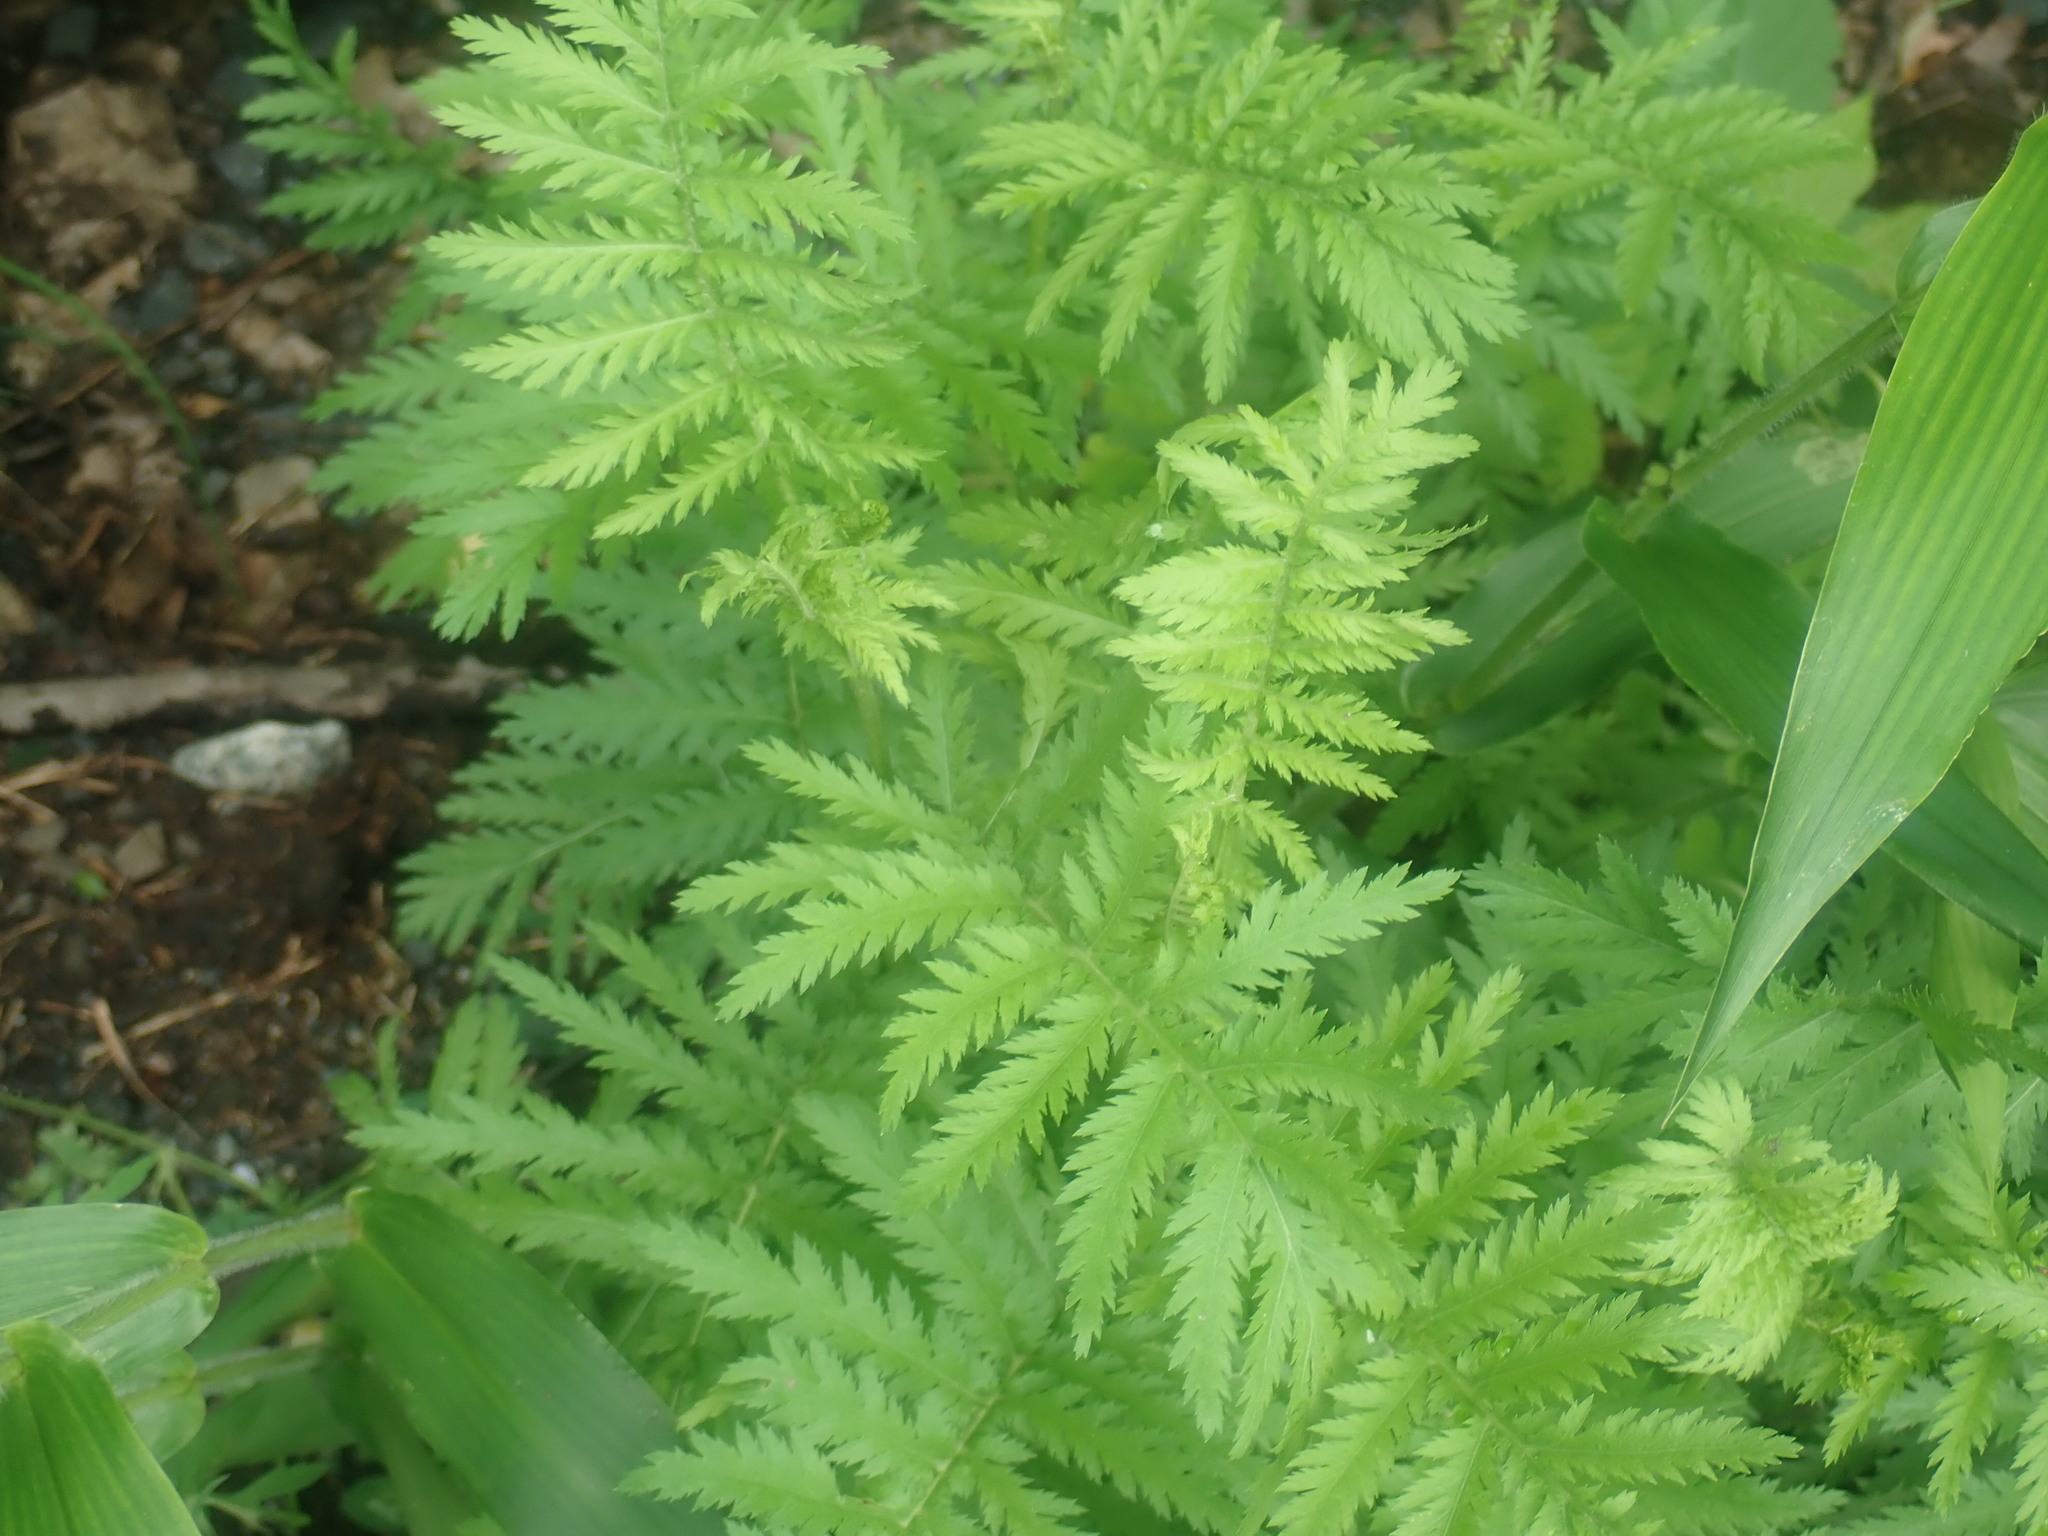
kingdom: Plantae
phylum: Tracheophyta
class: Magnoliopsida
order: Asterales
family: Asteraceae
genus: Tanacetum
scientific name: Tanacetum vulgare
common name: Common tansy
